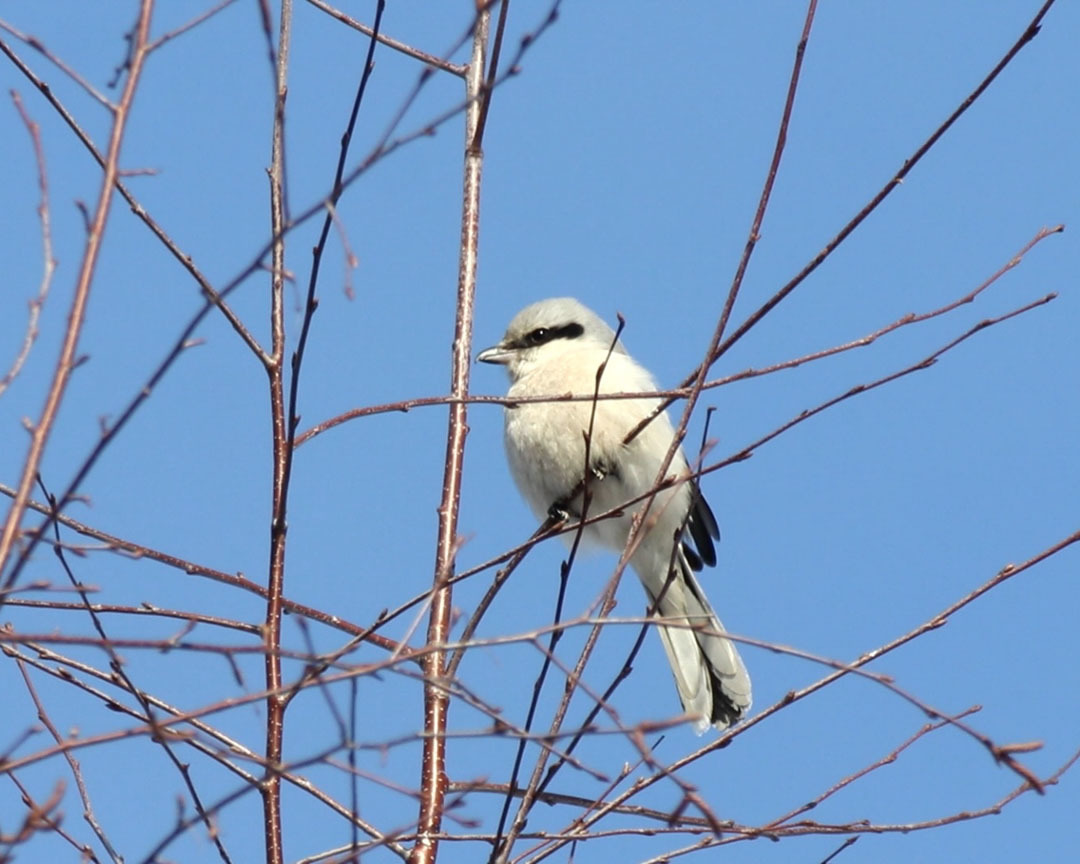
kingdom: Animalia
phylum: Chordata
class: Aves
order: Passeriformes
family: Laniidae
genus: Lanius
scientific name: Lanius excubitor
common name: Great grey shrike
